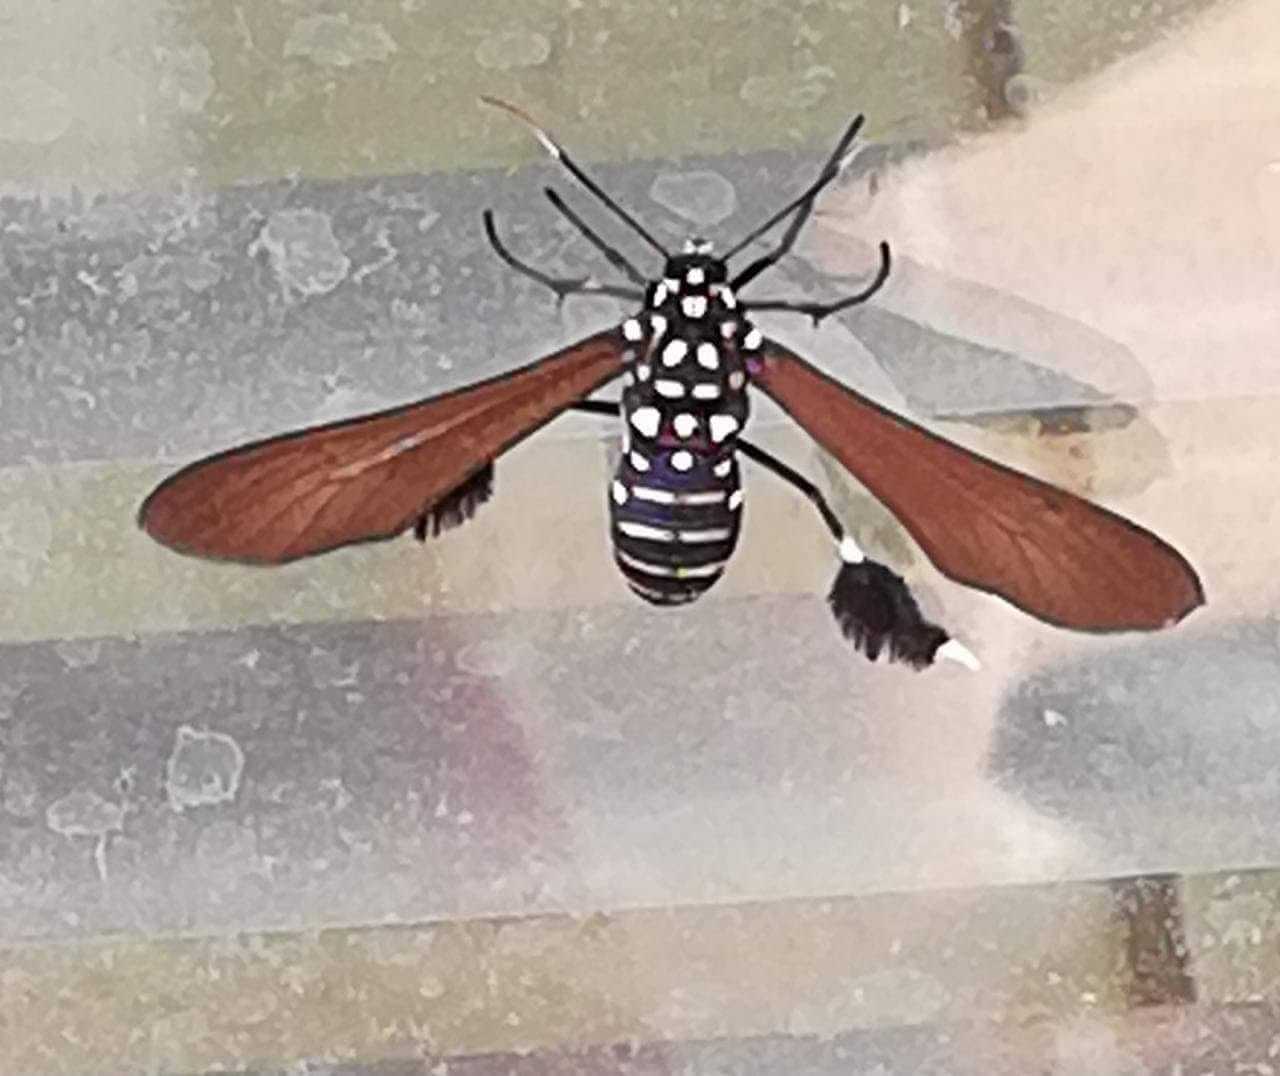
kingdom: Animalia
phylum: Arthropoda
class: Insecta
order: Lepidoptera
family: Erebidae
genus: Horama
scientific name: Horama plumipes
